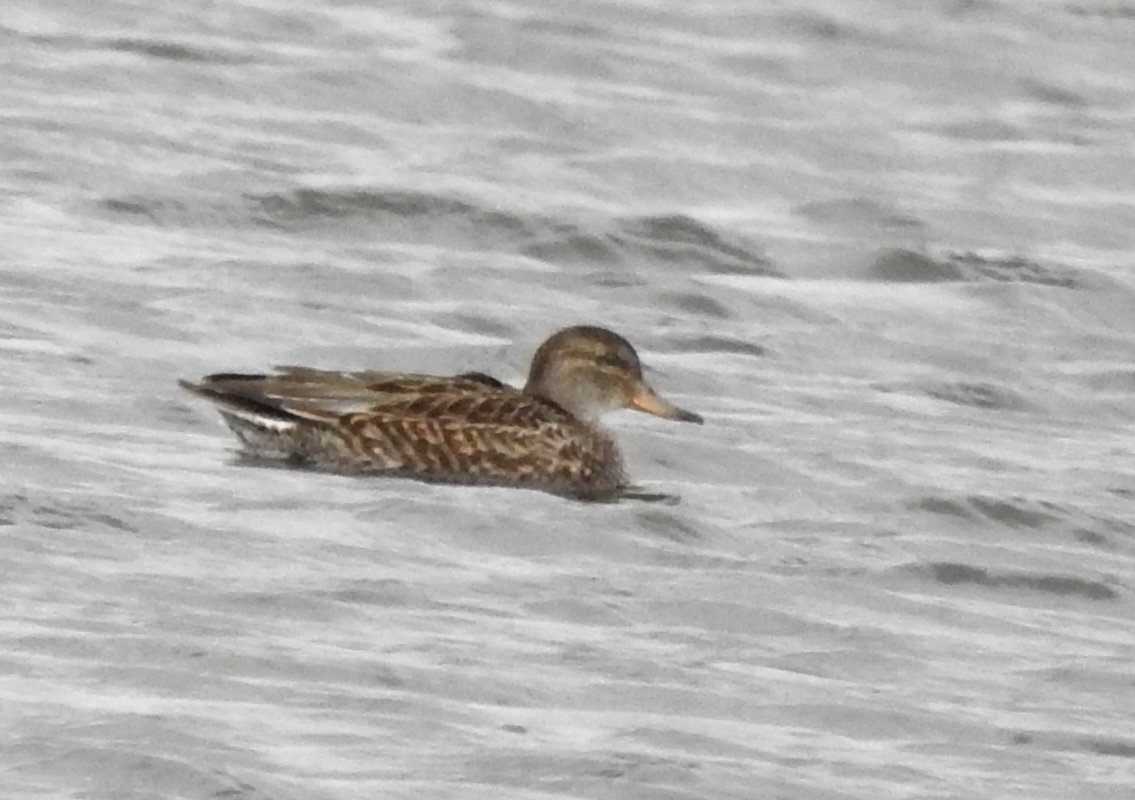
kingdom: Animalia
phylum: Chordata
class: Aves
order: Anseriformes
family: Anatidae
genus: Anas
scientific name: Anas crecca
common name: Eurasian teal
